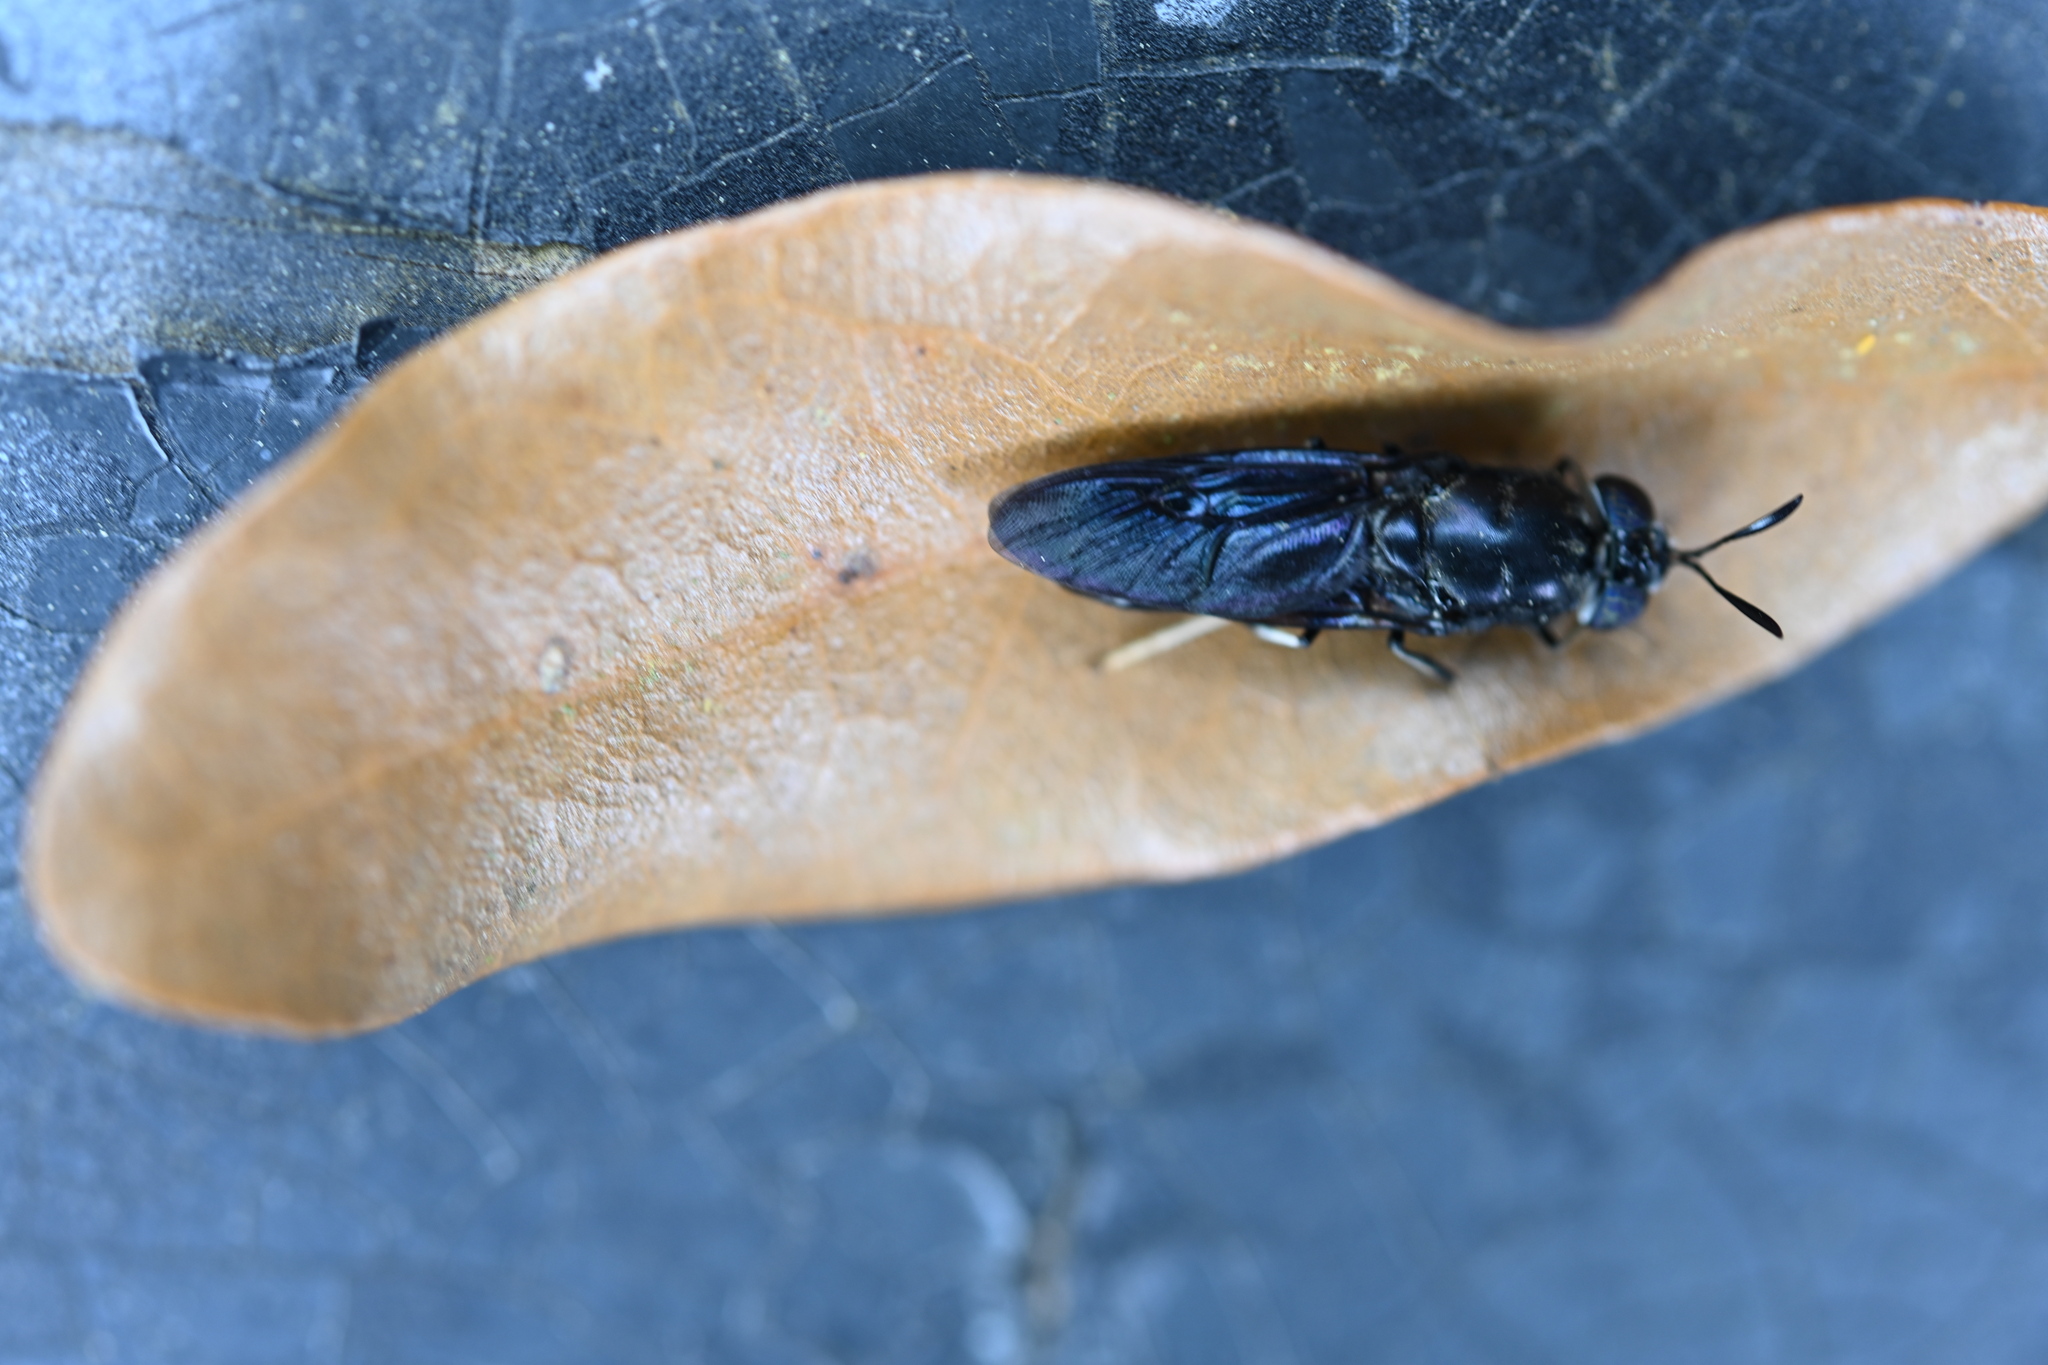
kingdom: Animalia
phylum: Arthropoda
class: Insecta
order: Diptera
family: Stratiomyidae
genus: Hermetia
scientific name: Hermetia illucens
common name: Black soldier fly
